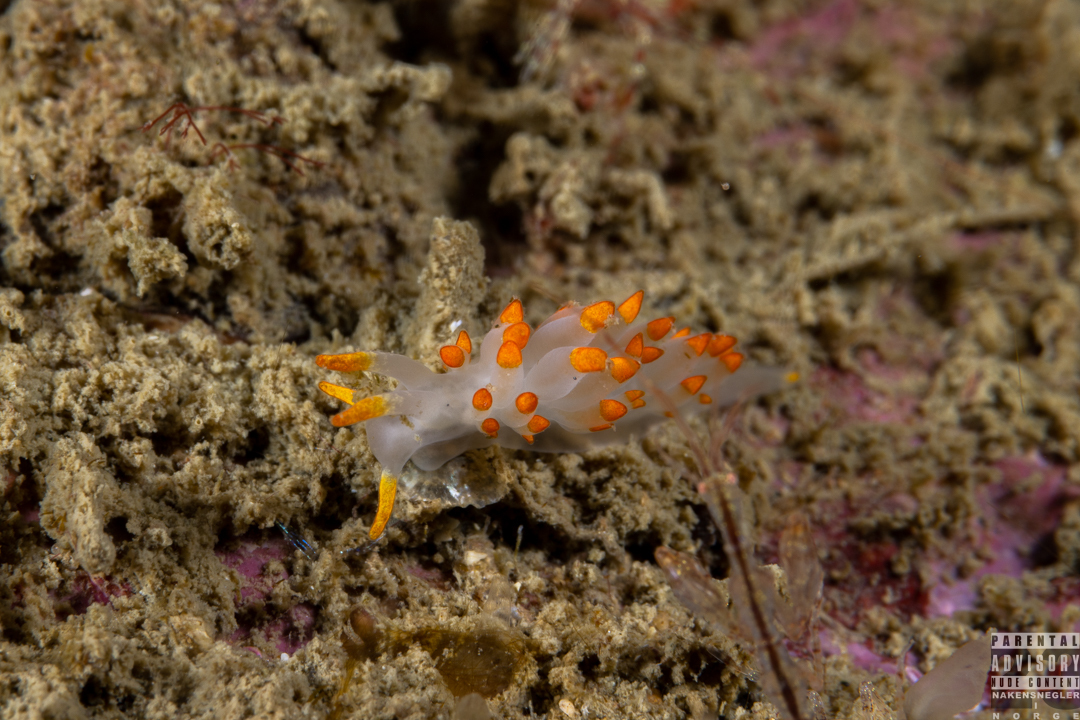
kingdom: Animalia
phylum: Mollusca
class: Gastropoda
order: Nudibranchia
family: Eubranchidae
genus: Amphorina
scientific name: Amphorina farrani
